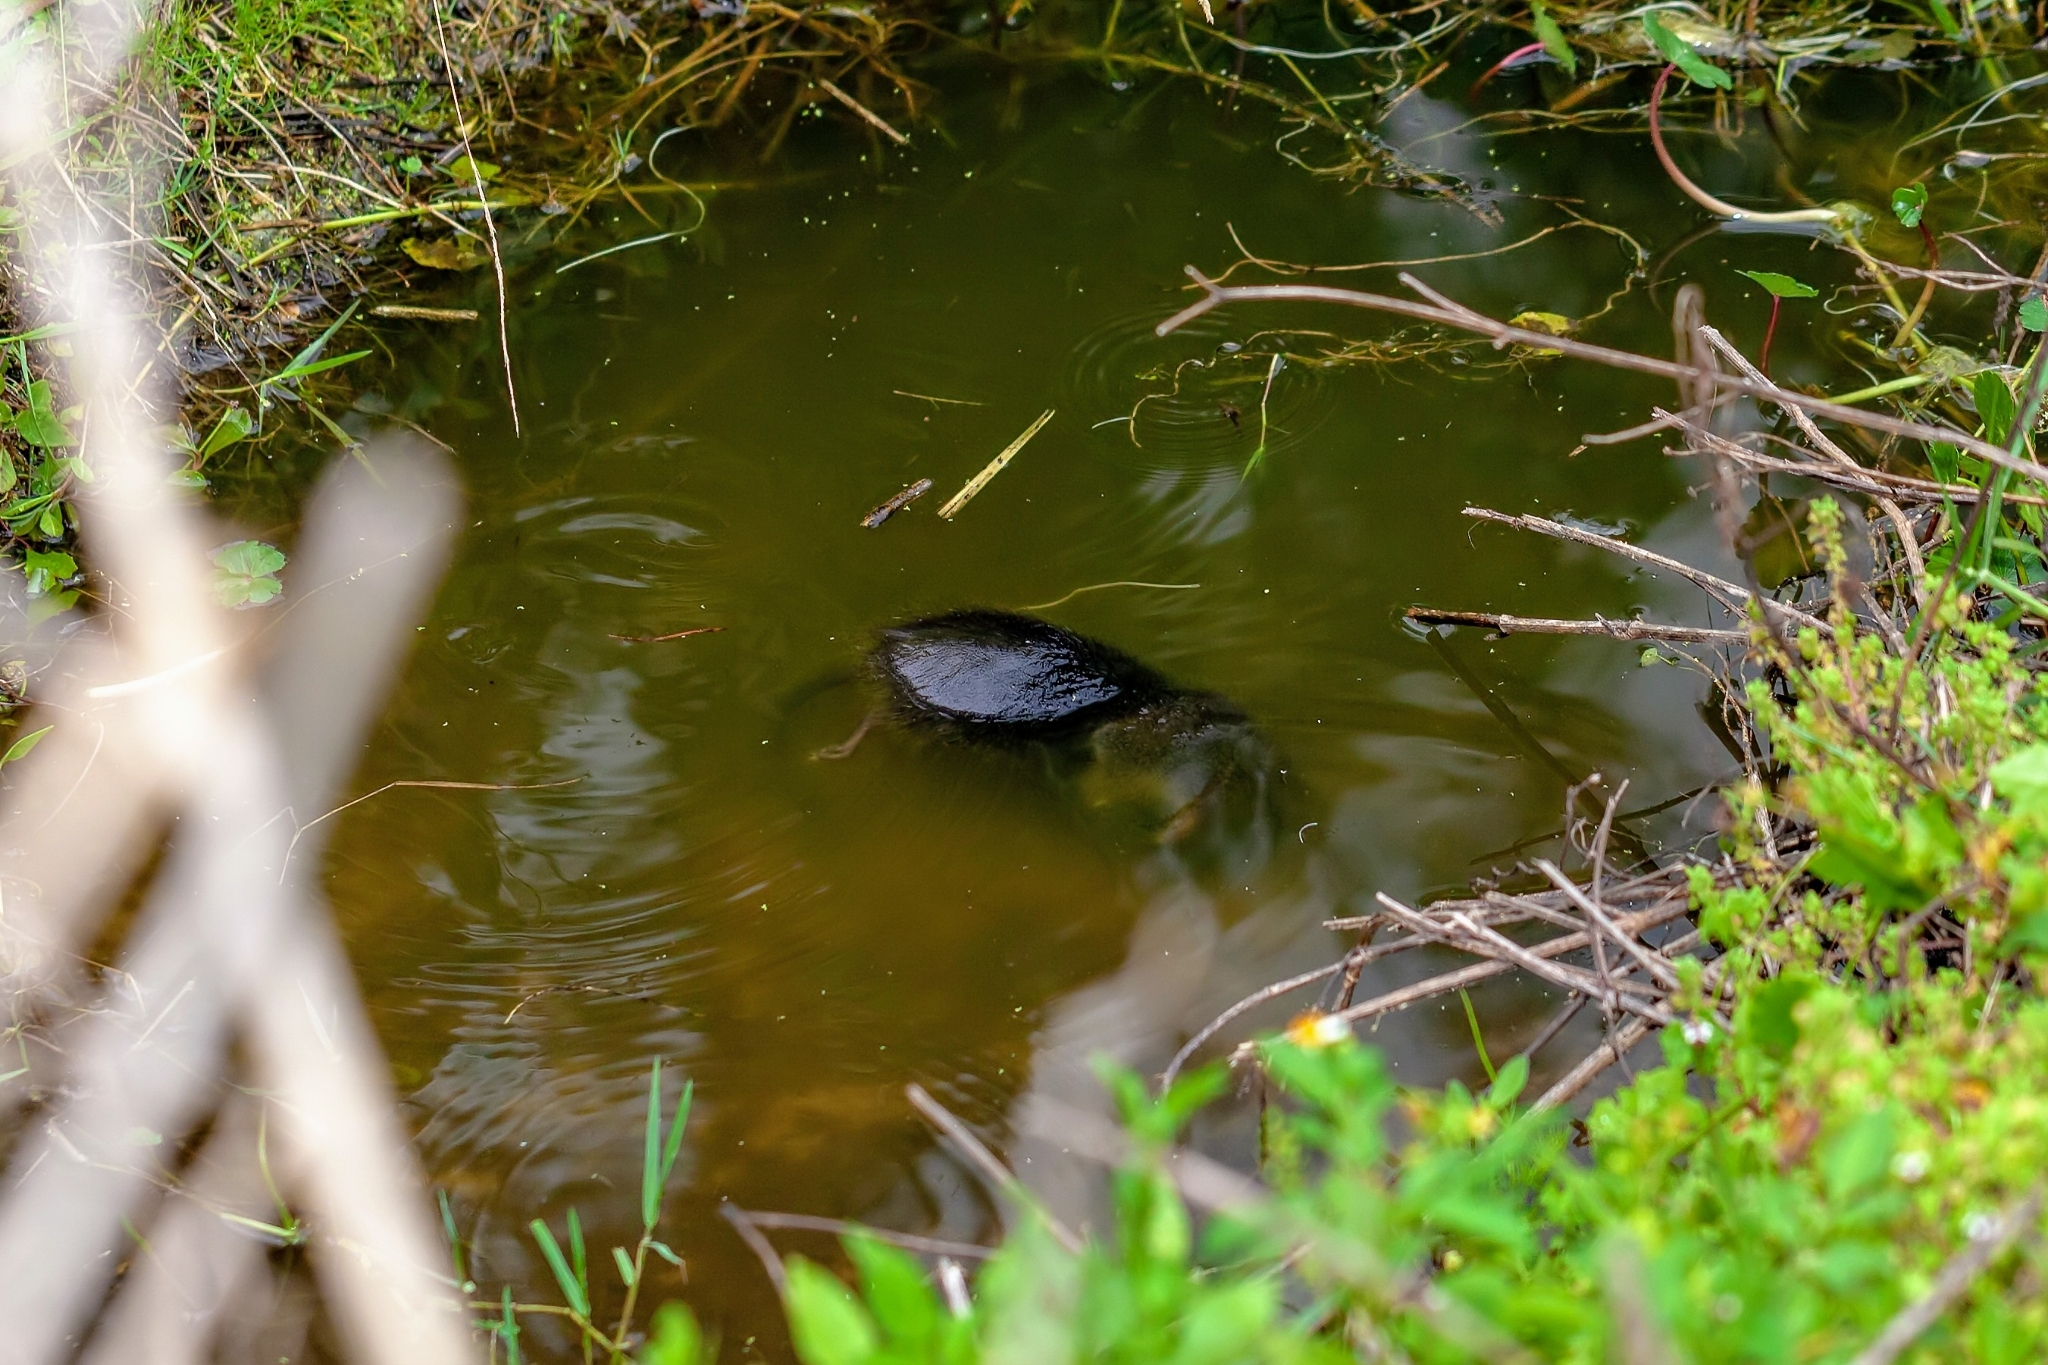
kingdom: Animalia
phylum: Chordata
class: Mammalia
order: Rodentia
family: Cricetidae
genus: Neofiber
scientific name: Neofiber alleni
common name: Round-tailed muskrat
